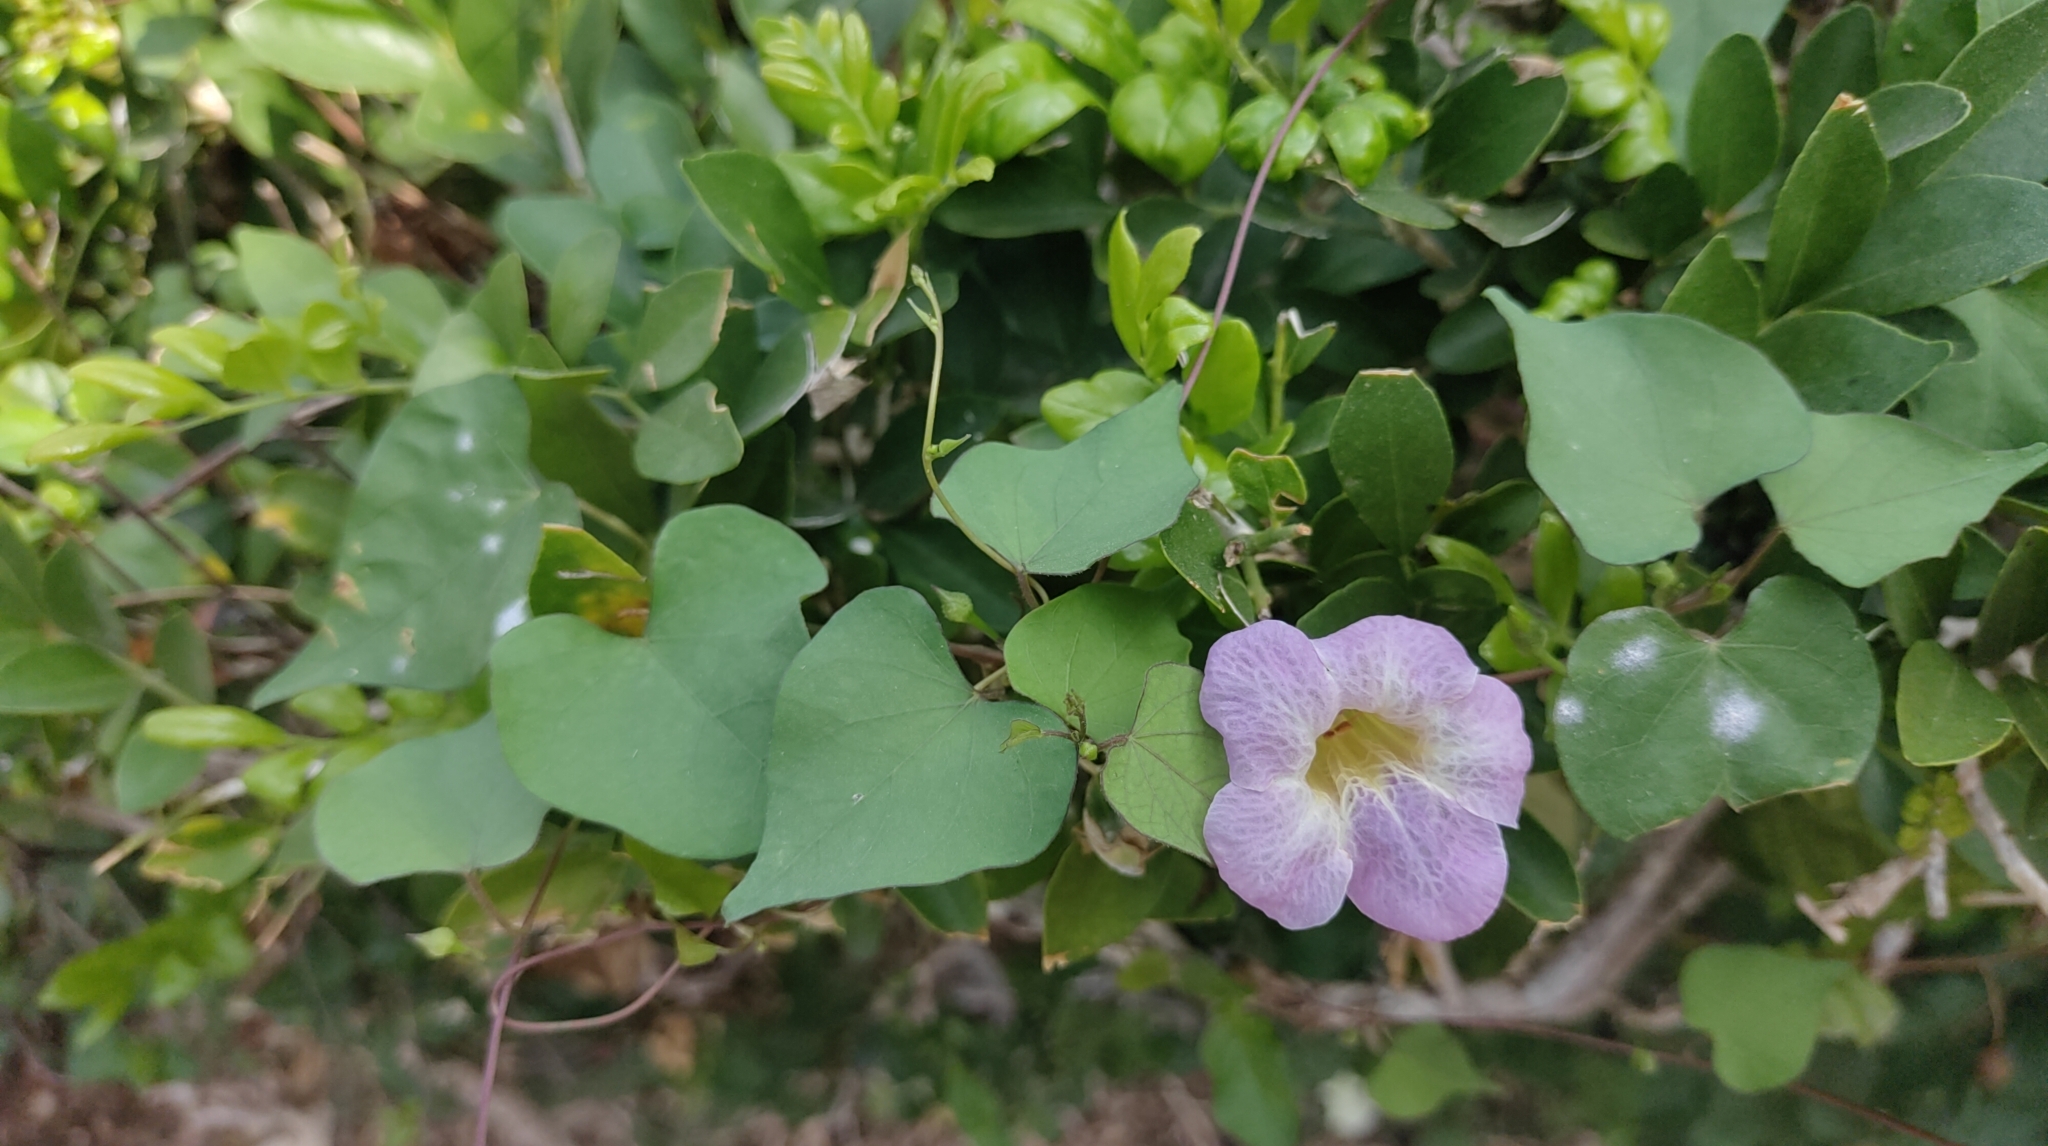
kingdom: Plantae
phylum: Tracheophyta
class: Magnoliopsida
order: Lamiales
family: Acanthaceae
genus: Asystasia
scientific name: Asystasia gangetica
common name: Chinese violet
